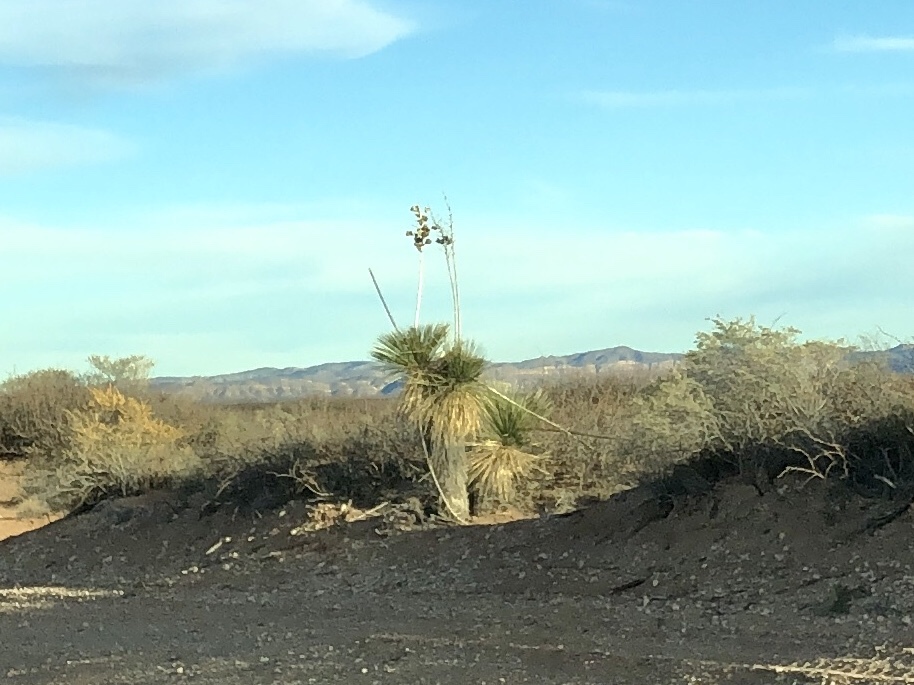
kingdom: Plantae
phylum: Tracheophyta
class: Liliopsida
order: Asparagales
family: Asparagaceae
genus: Yucca
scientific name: Yucca elata
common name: Palmella
